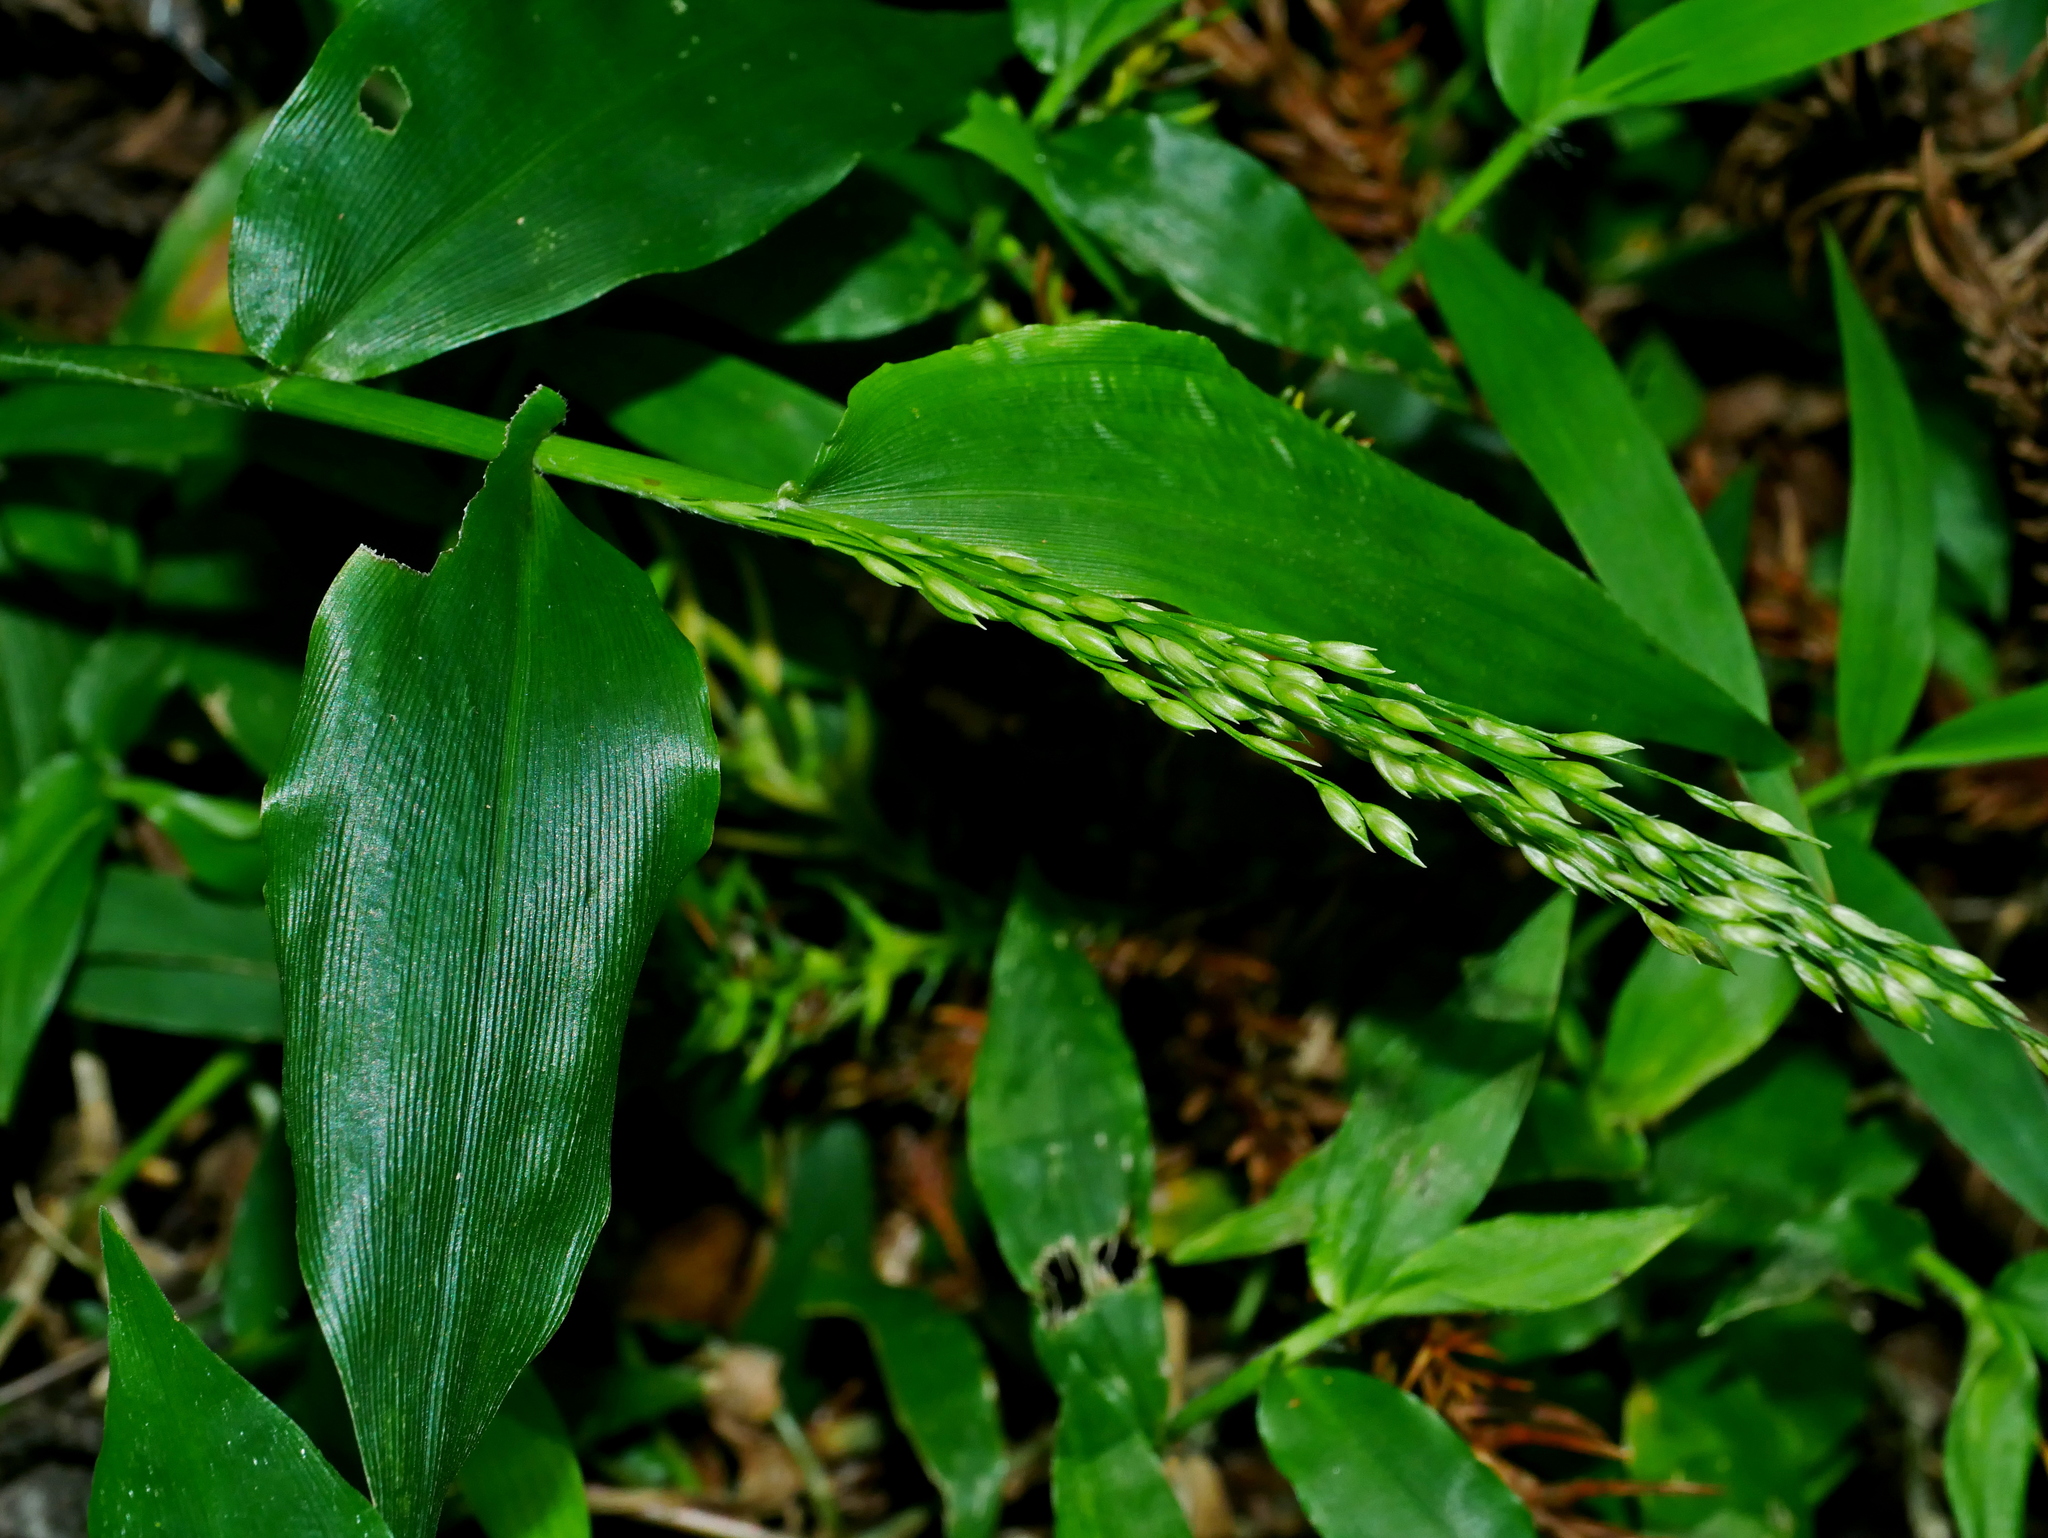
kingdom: Plantae
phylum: Tracheophyta
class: Liliopsida
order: Poales
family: Poaceae
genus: Ichnanthus
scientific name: Ichnanthus pallens
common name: Water grass
